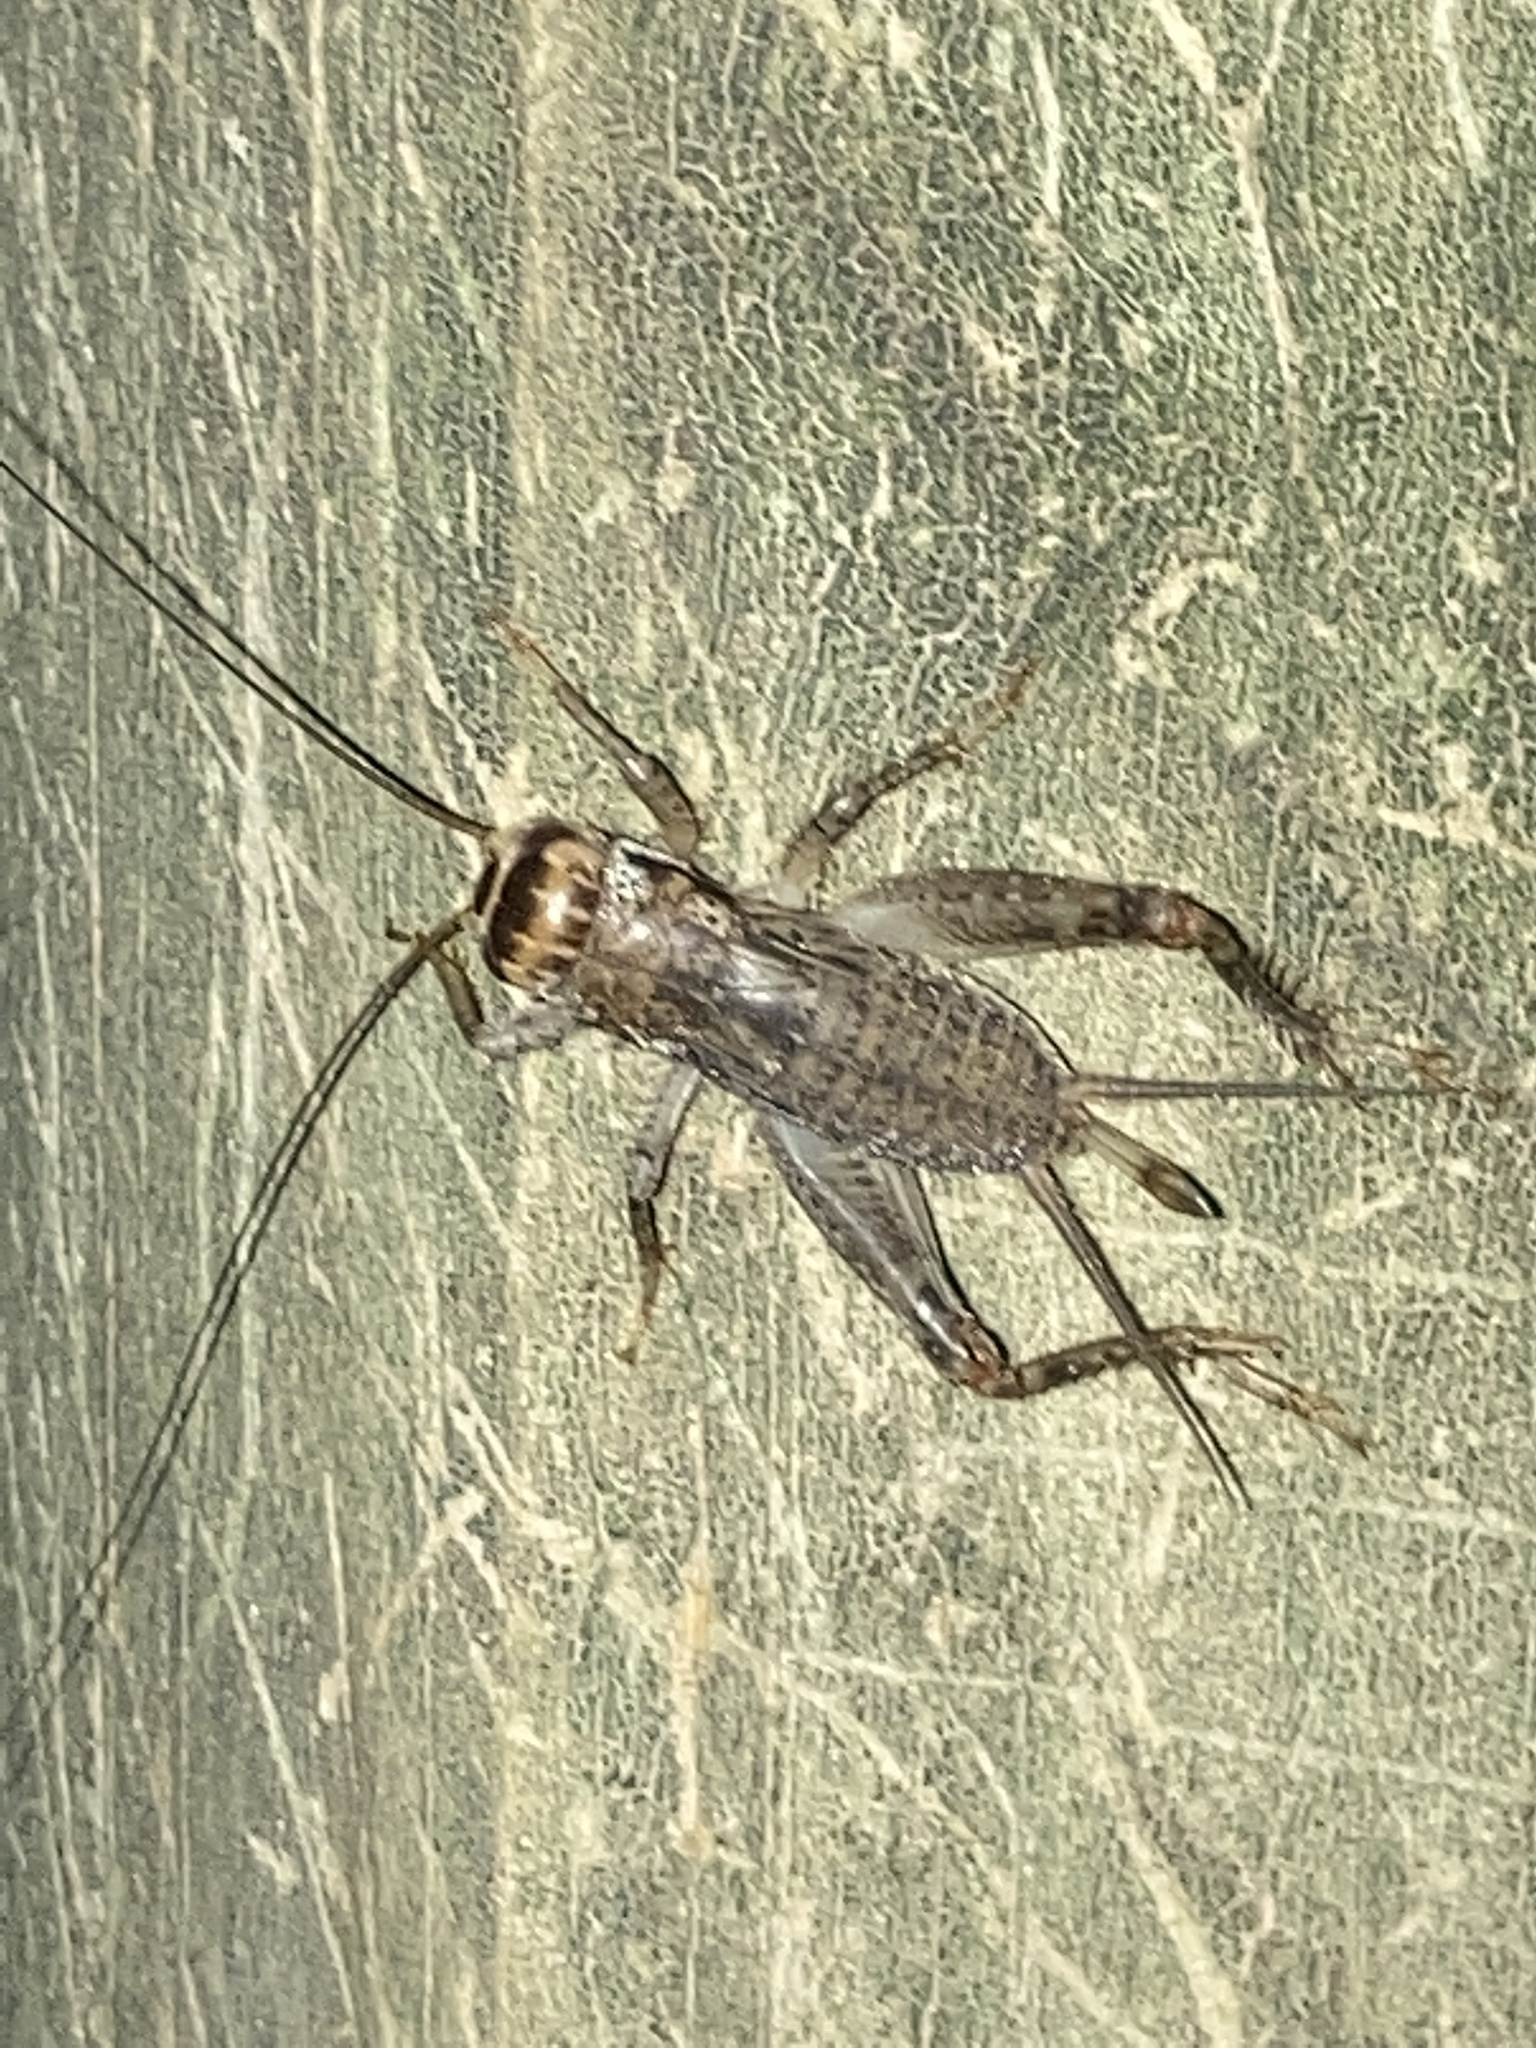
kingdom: Animalia
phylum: Arthropoda
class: Insecta
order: Orthoptera
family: Gryllidae
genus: Velarifictorus
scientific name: Velarifictorus micado
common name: Japanese burrowing cricket
